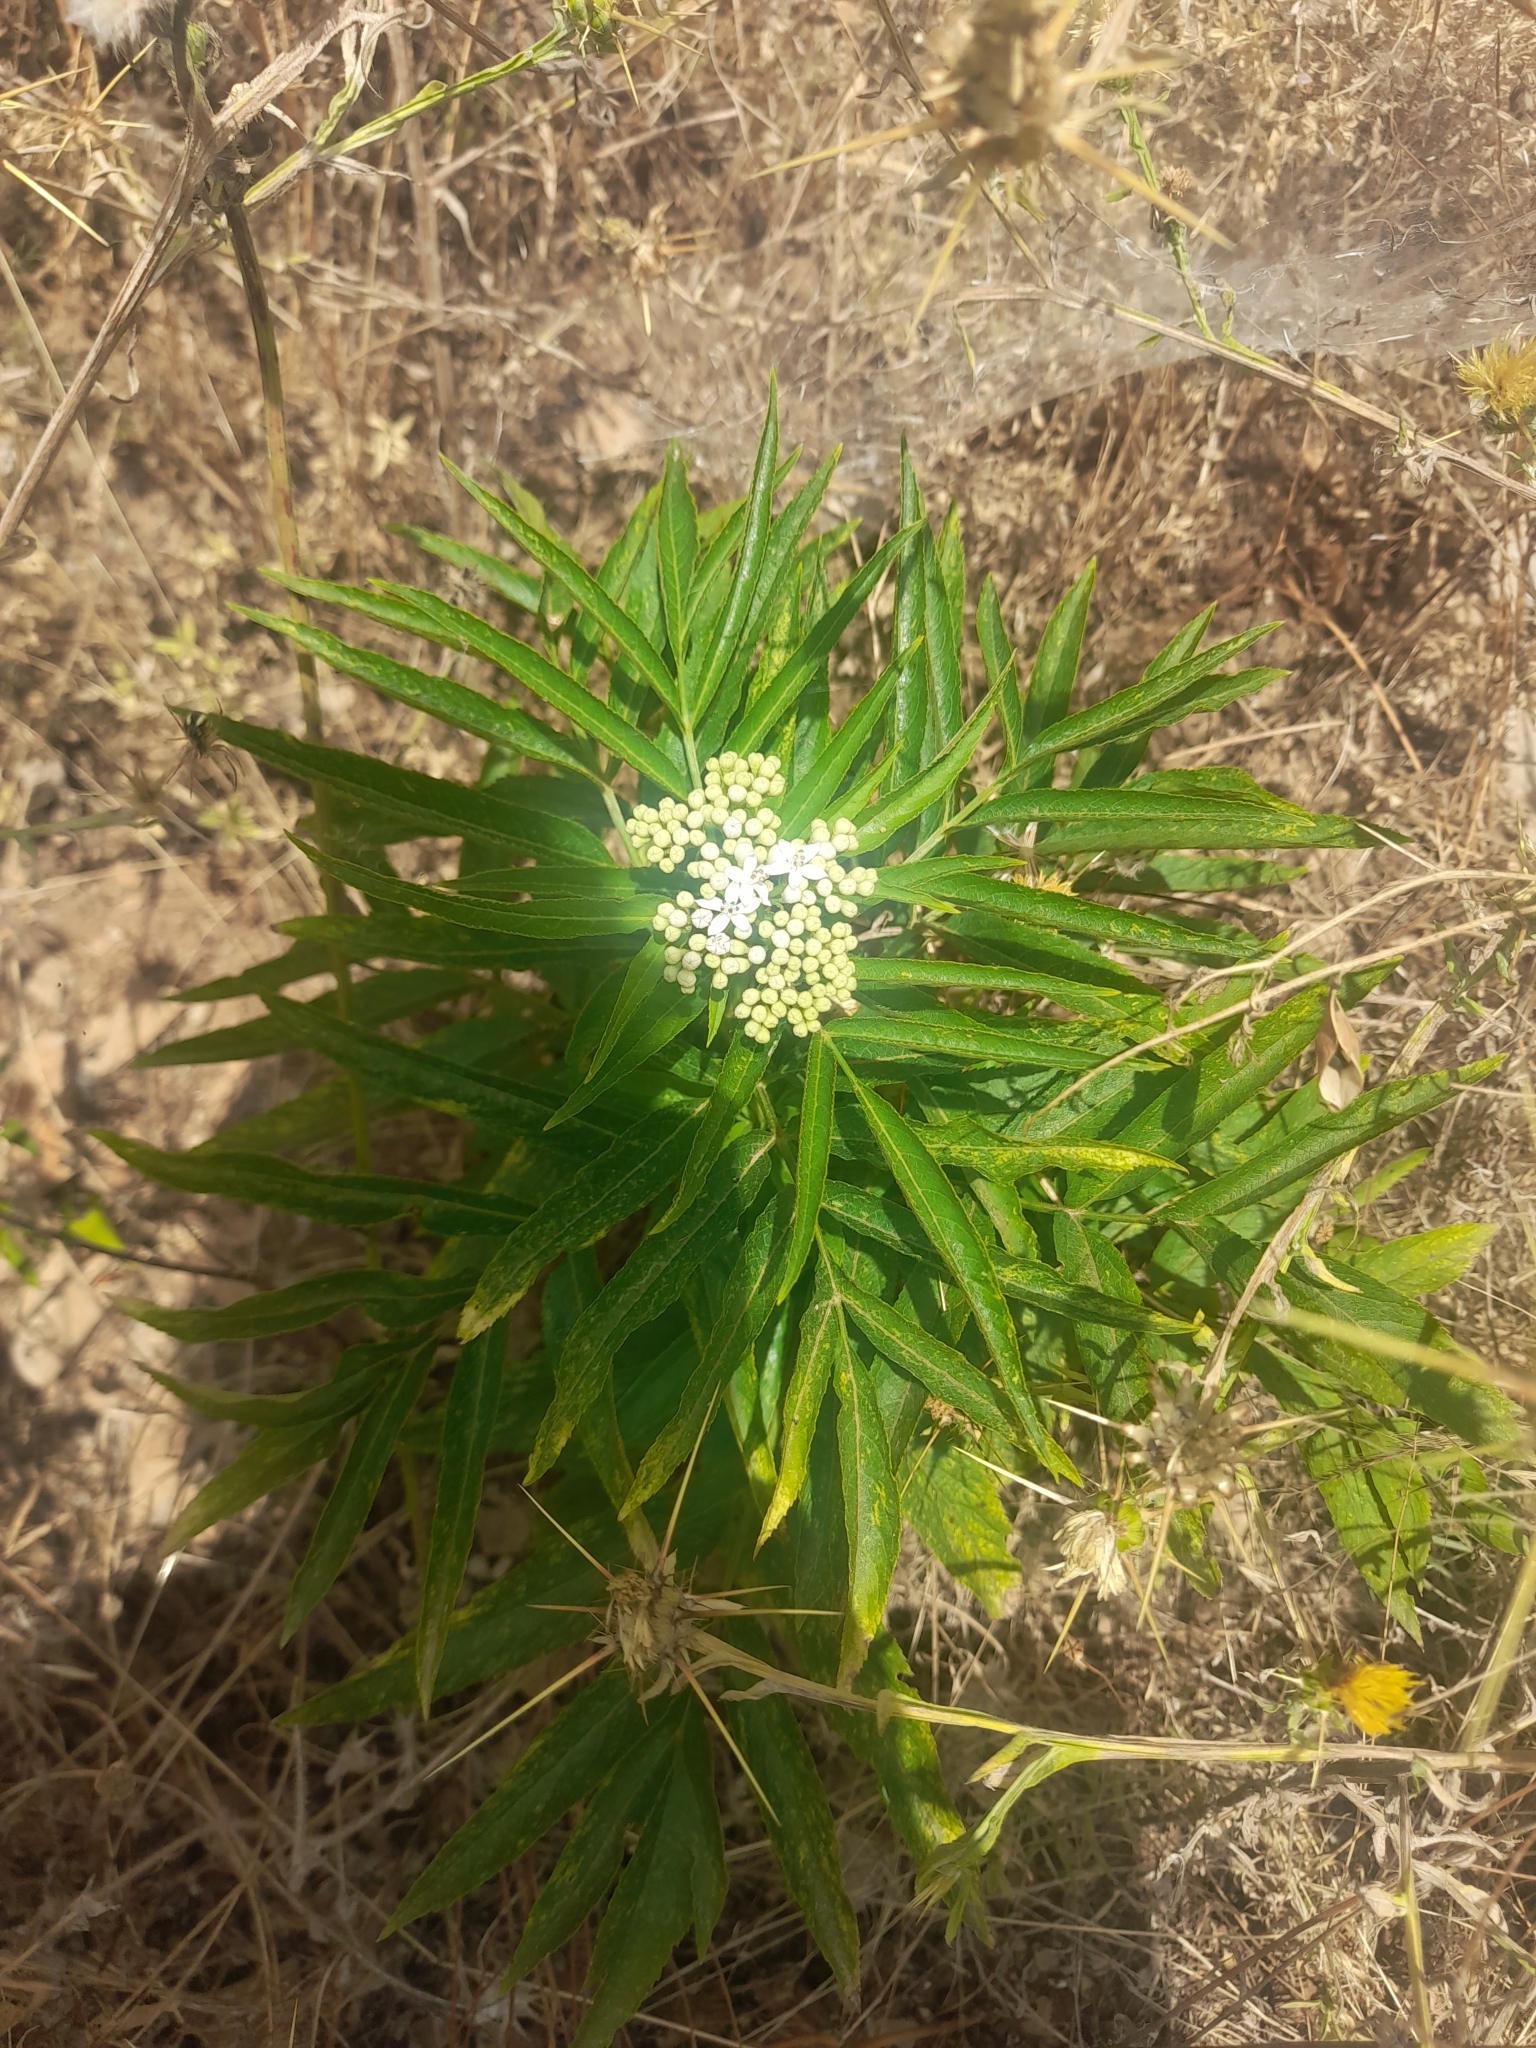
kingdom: Plantae
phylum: Tracheophyta
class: Magnoliopsida
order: Dipsacales
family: Viburnaceae
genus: Sambucus
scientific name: Sambucus ebulus
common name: Dwarf elder
